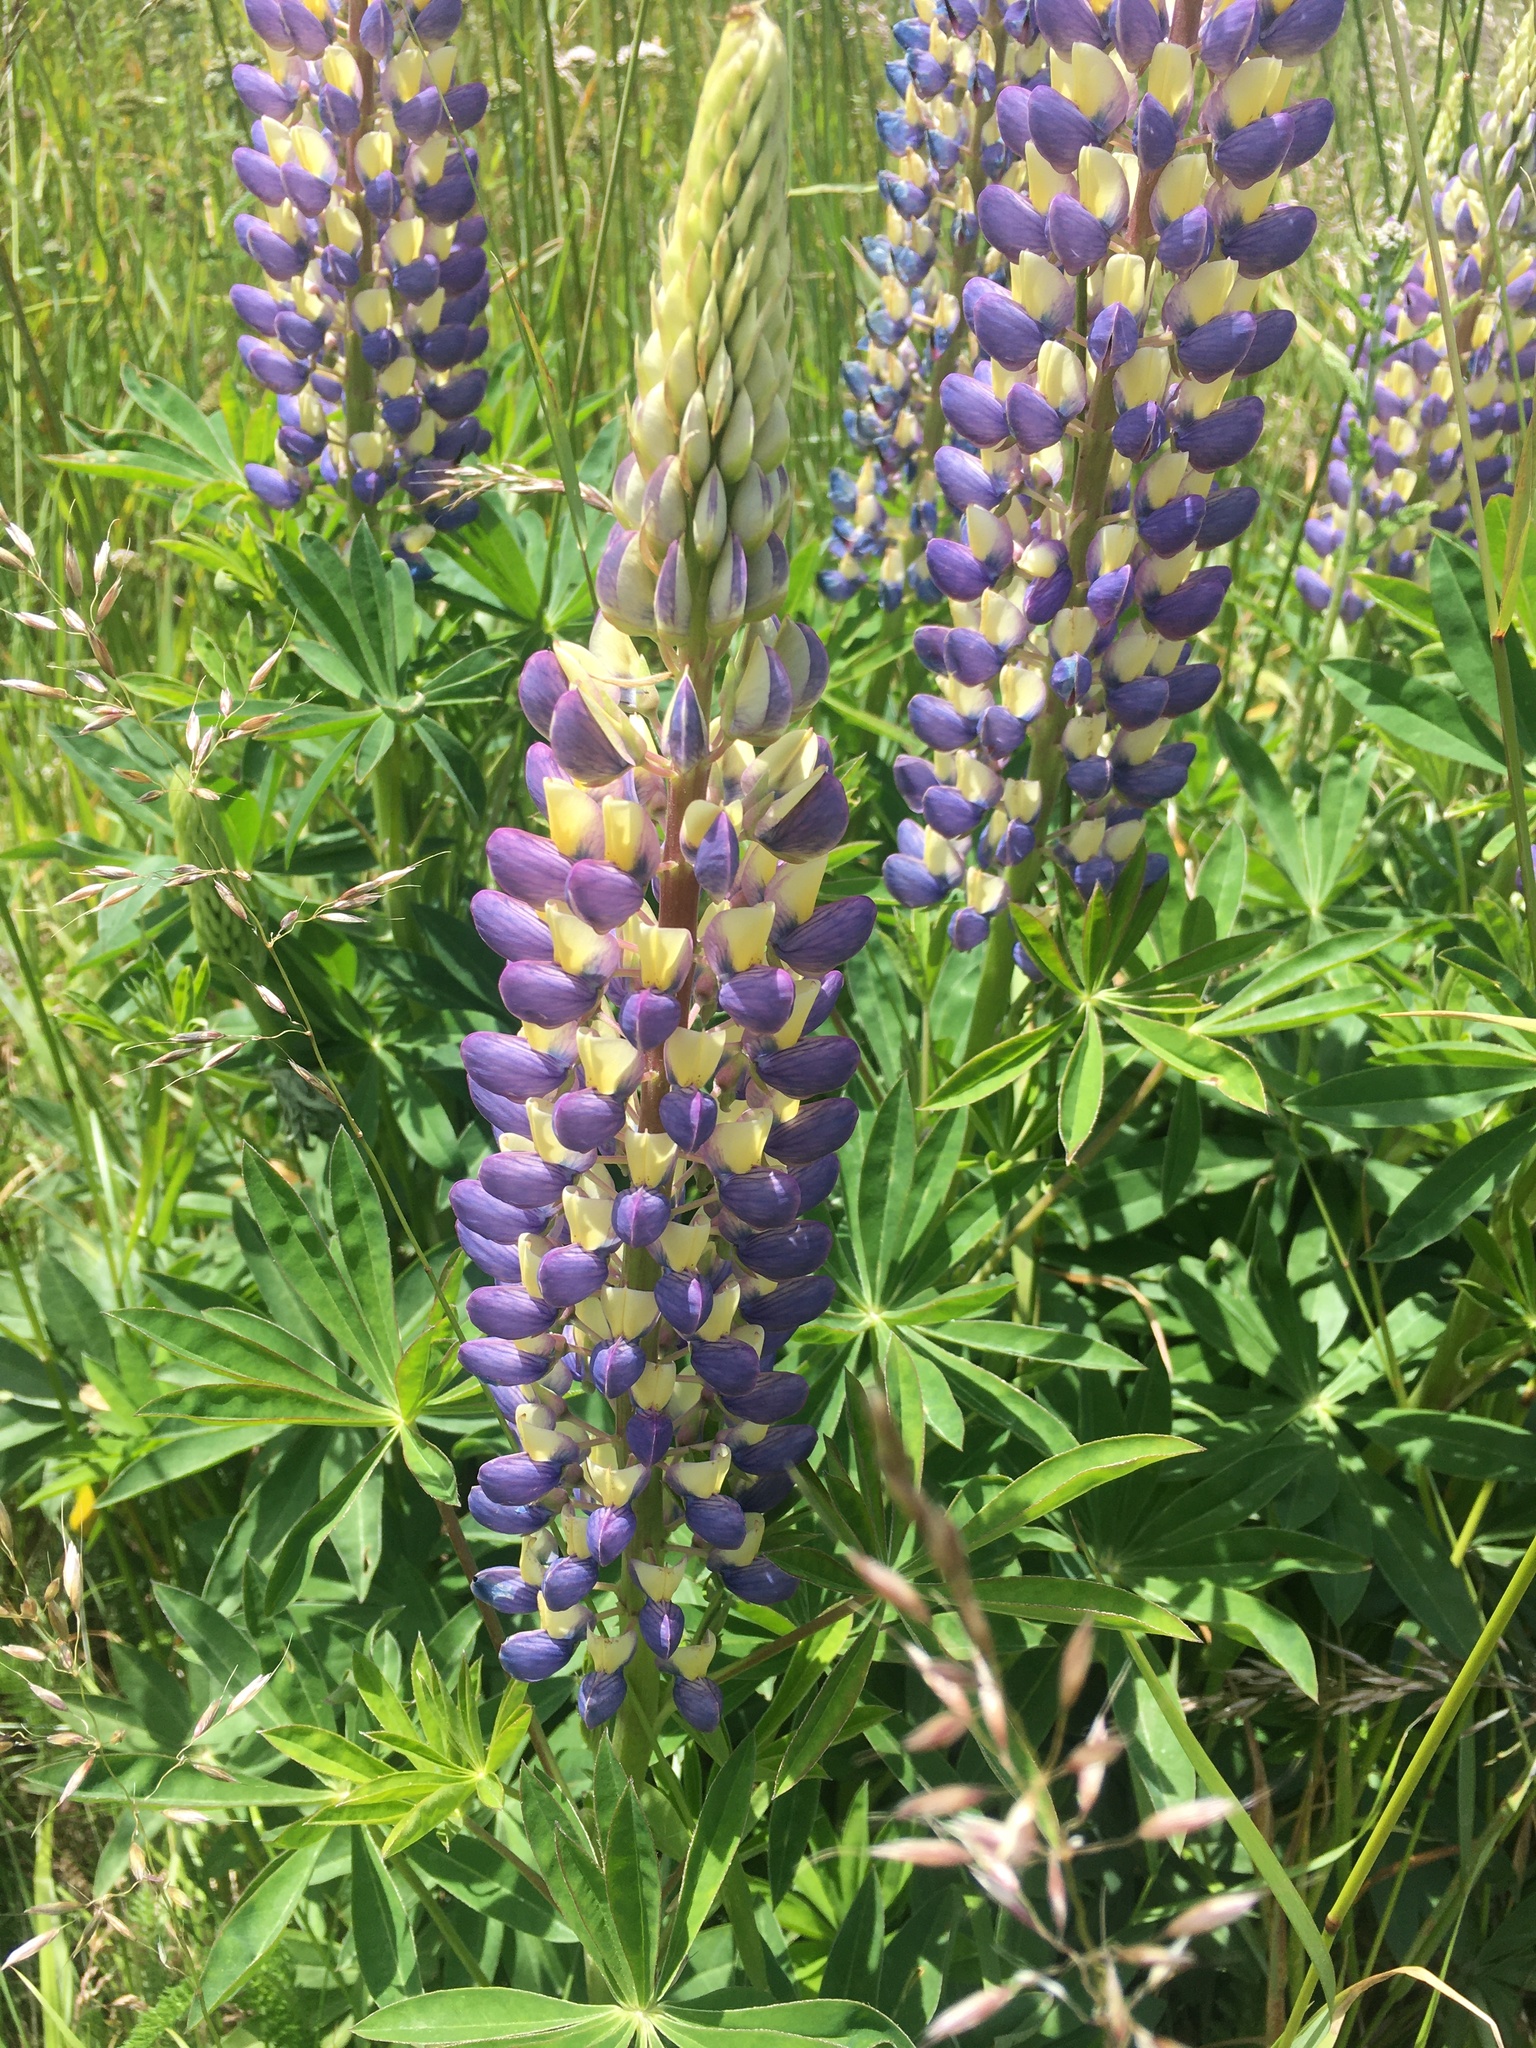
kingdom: Plantae
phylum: Tracheophyta
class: Magnoliopsida
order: Fabales
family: Fabaceae
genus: Lupinus
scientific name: Lupinus polyphyllus
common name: Garden lupin
